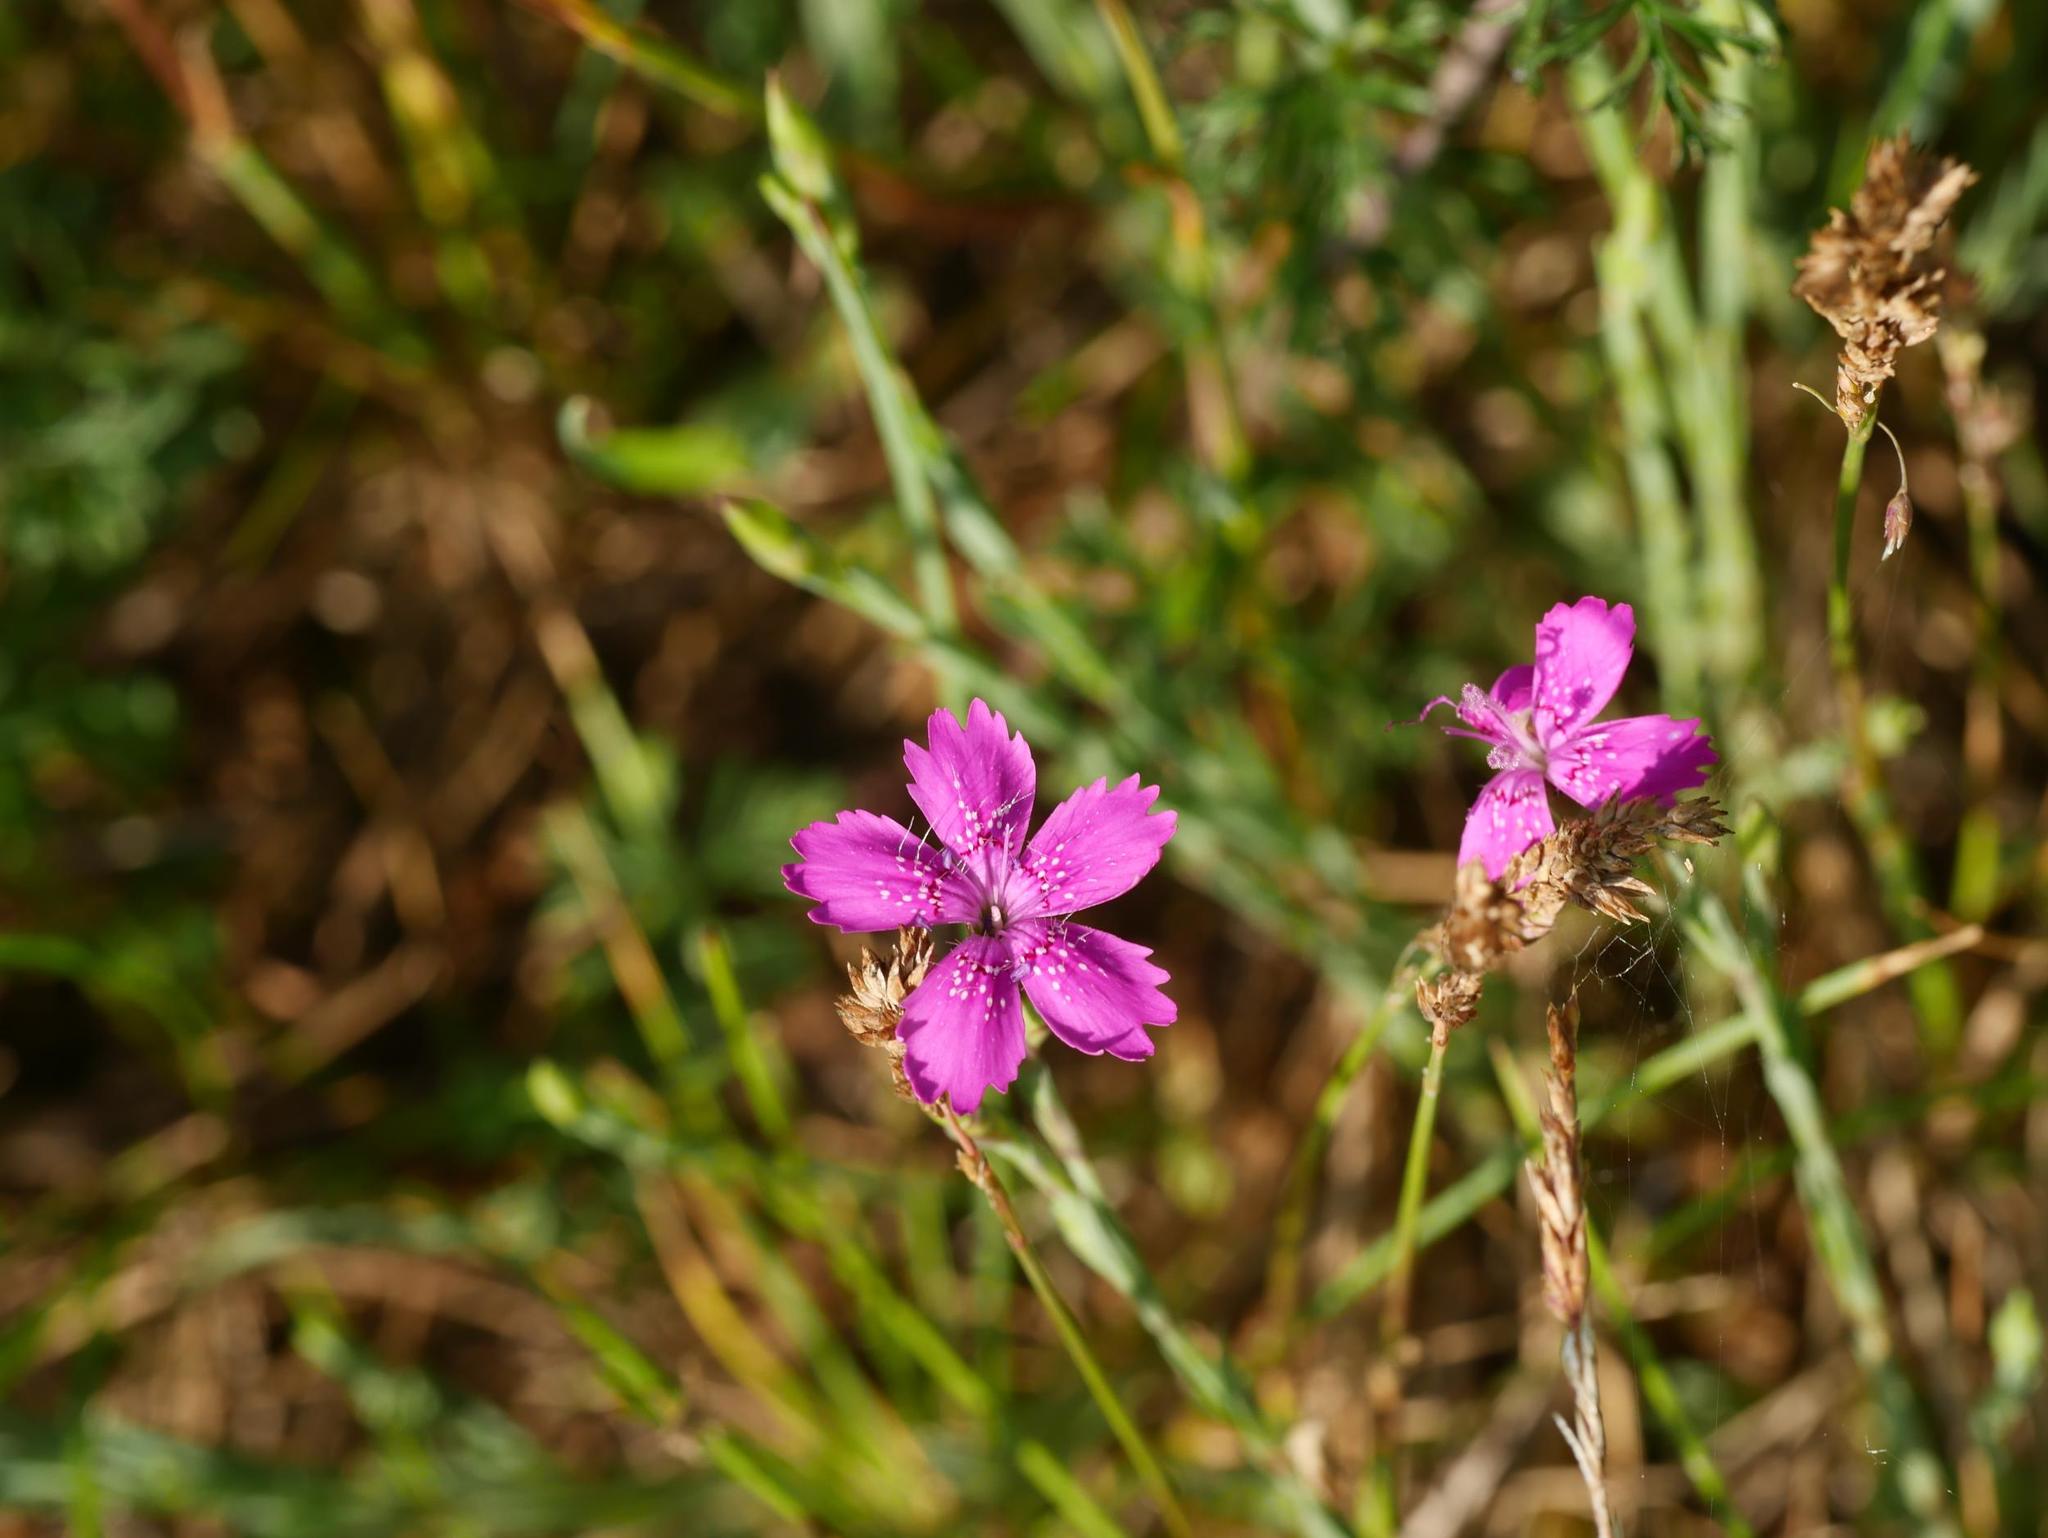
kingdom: Plantae
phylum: Tracheophyta
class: Magnoliopsida
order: Caryophyllales
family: Caryophyllaceae
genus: Dianthus
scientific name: Dianthus deltoides
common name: Maiden pink
